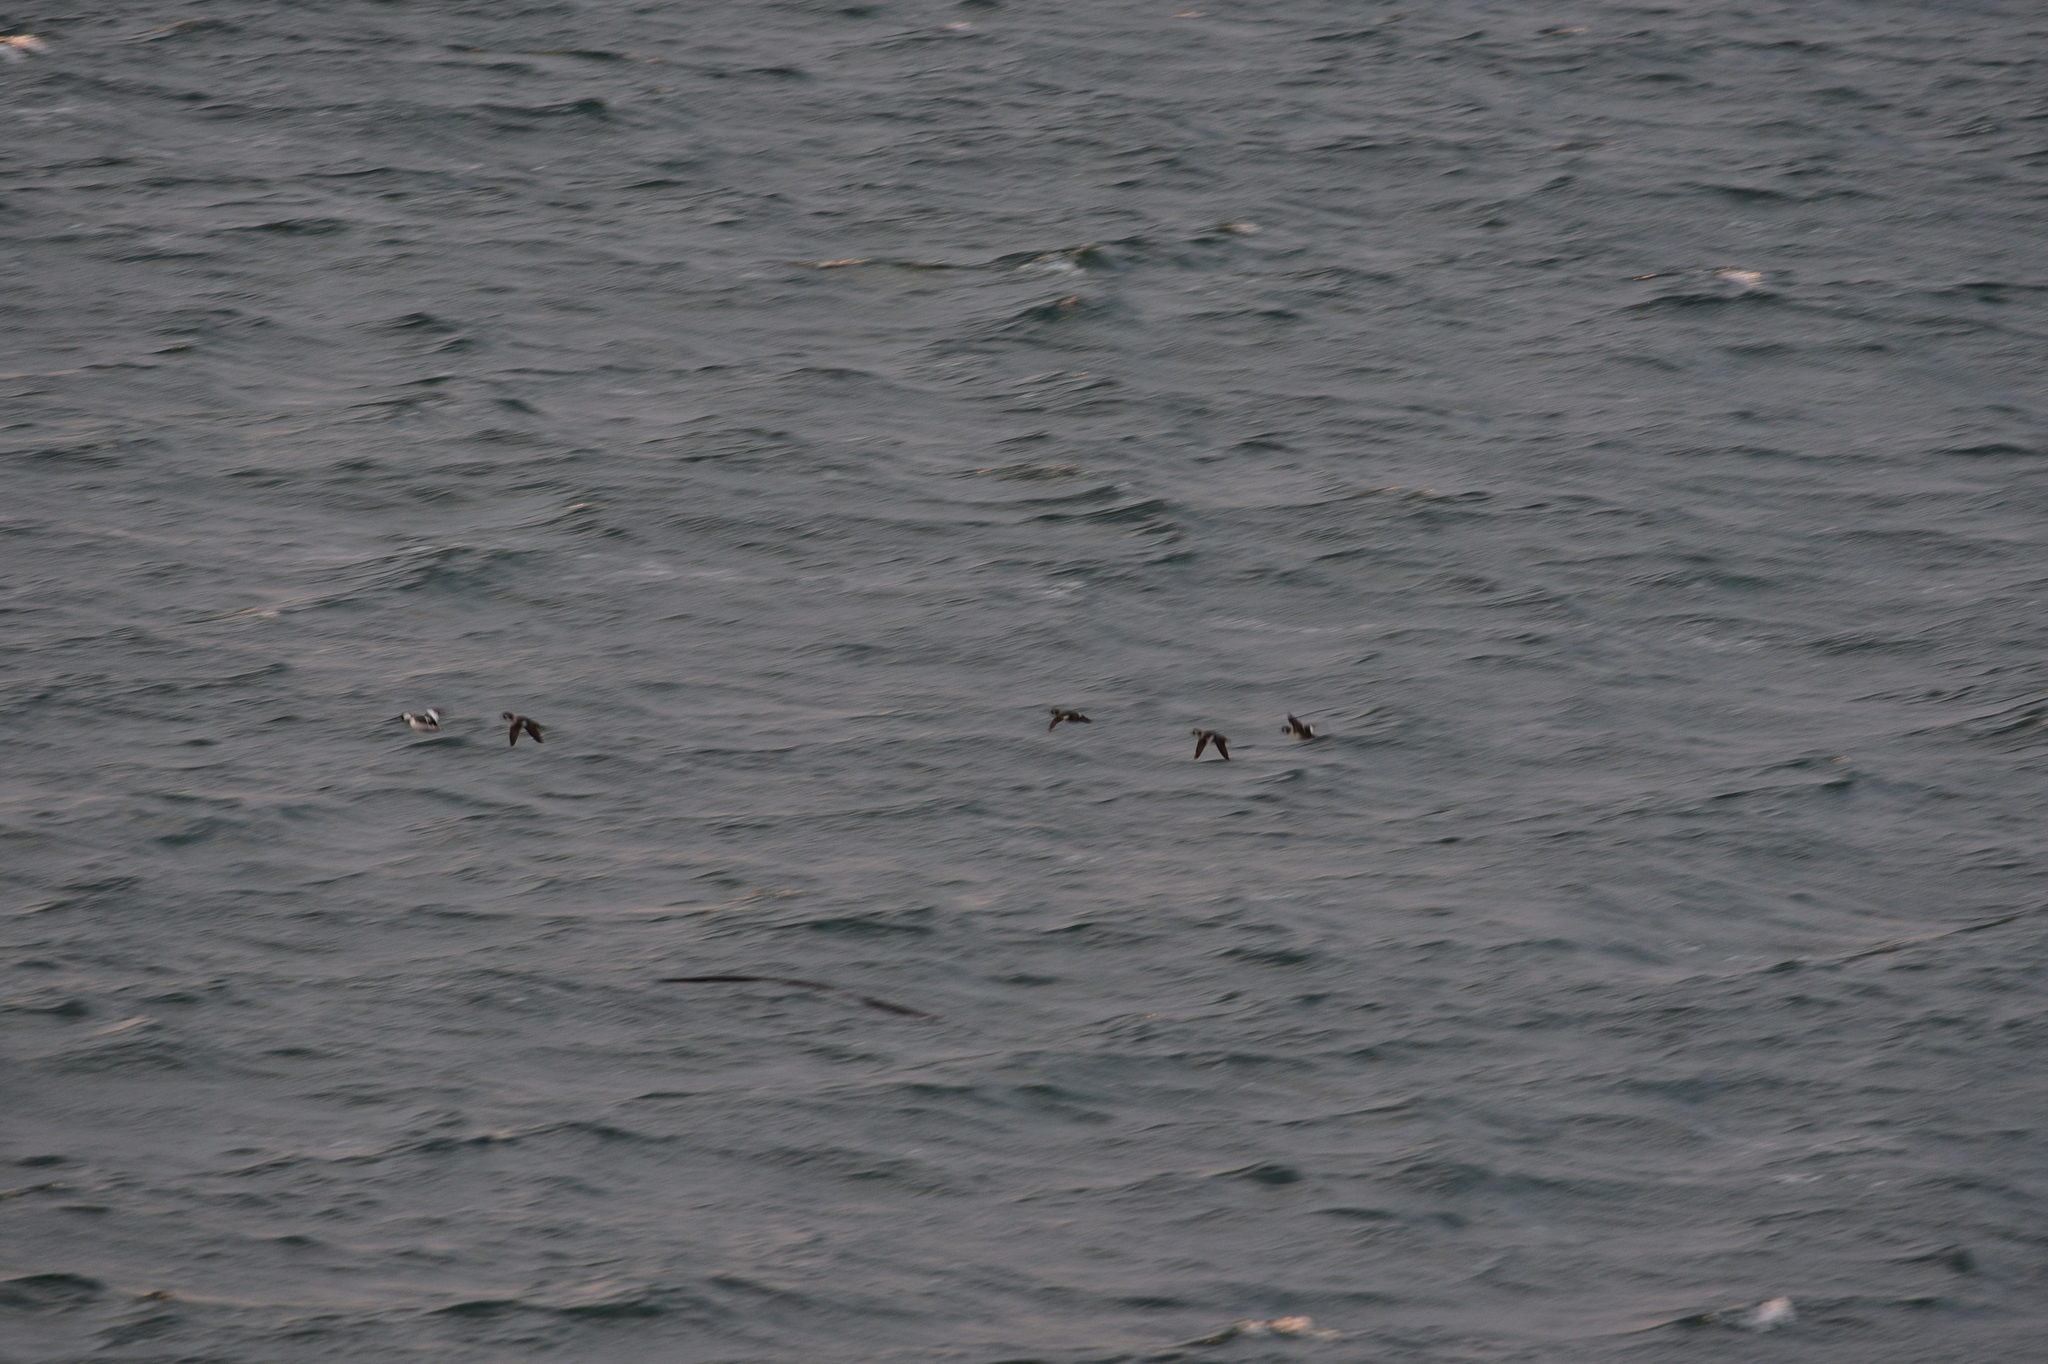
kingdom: Animalia
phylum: Chordata
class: Aves
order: Anseriformes
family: Anatidae
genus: Bucephala
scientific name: Bucephala albeola
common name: Bufflehead
